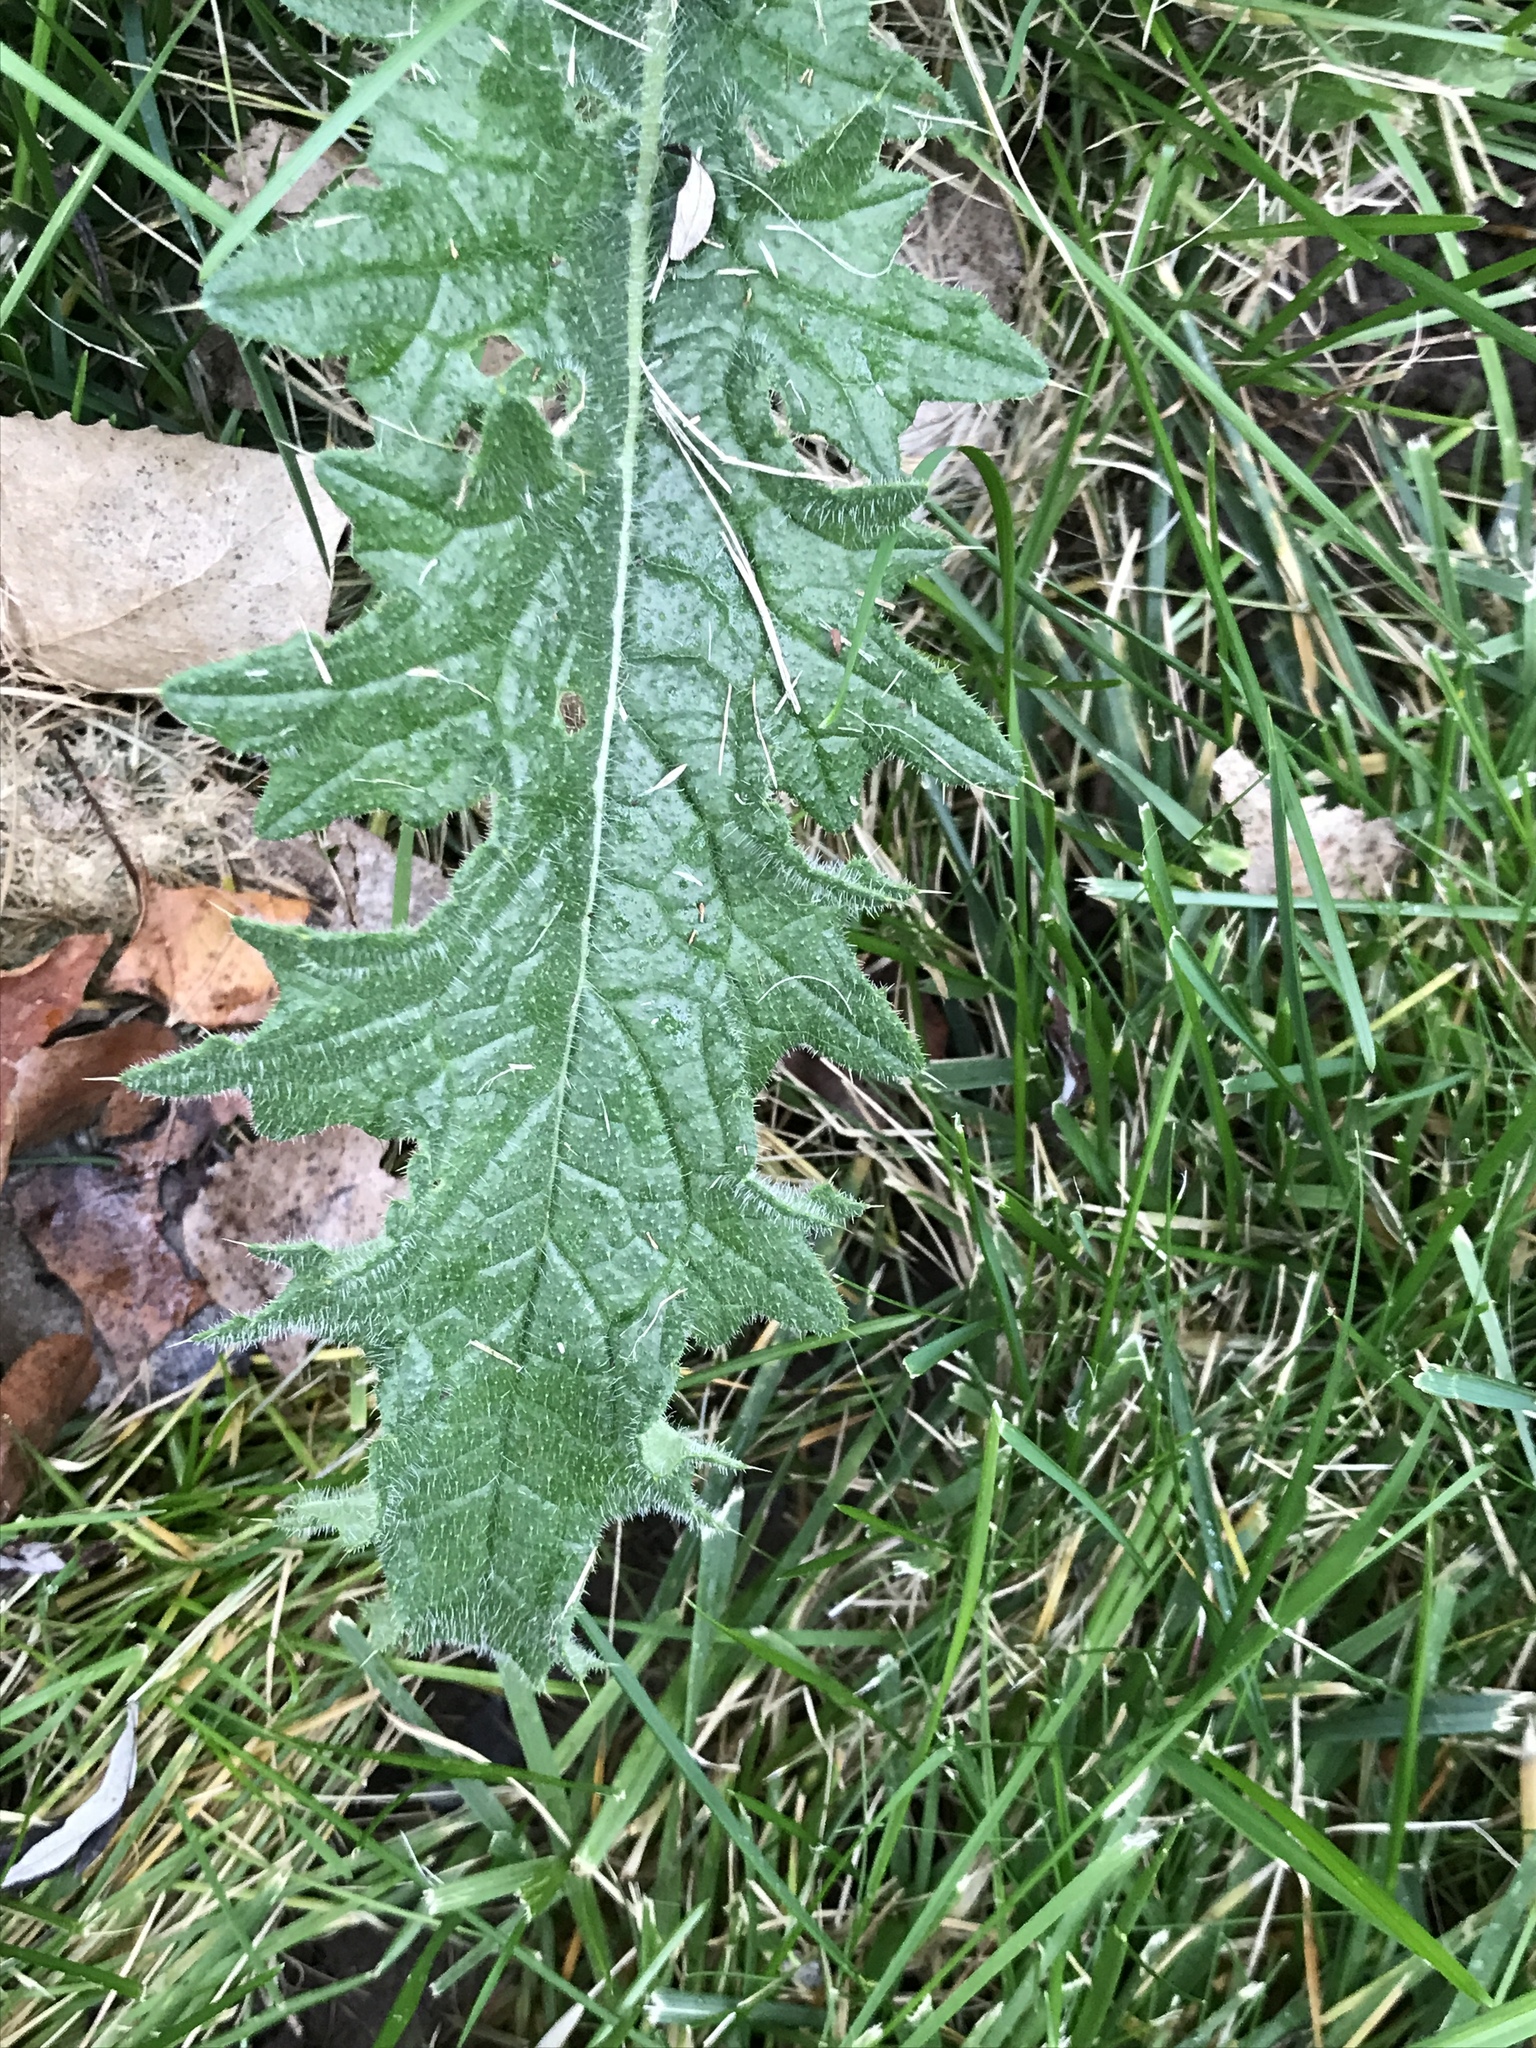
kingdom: Plantae
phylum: Tracheophyta
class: Magnoliopsida
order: Asterales
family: Asteraceae
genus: Cirsium
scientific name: Cirsium vulgare
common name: Bull thistle
